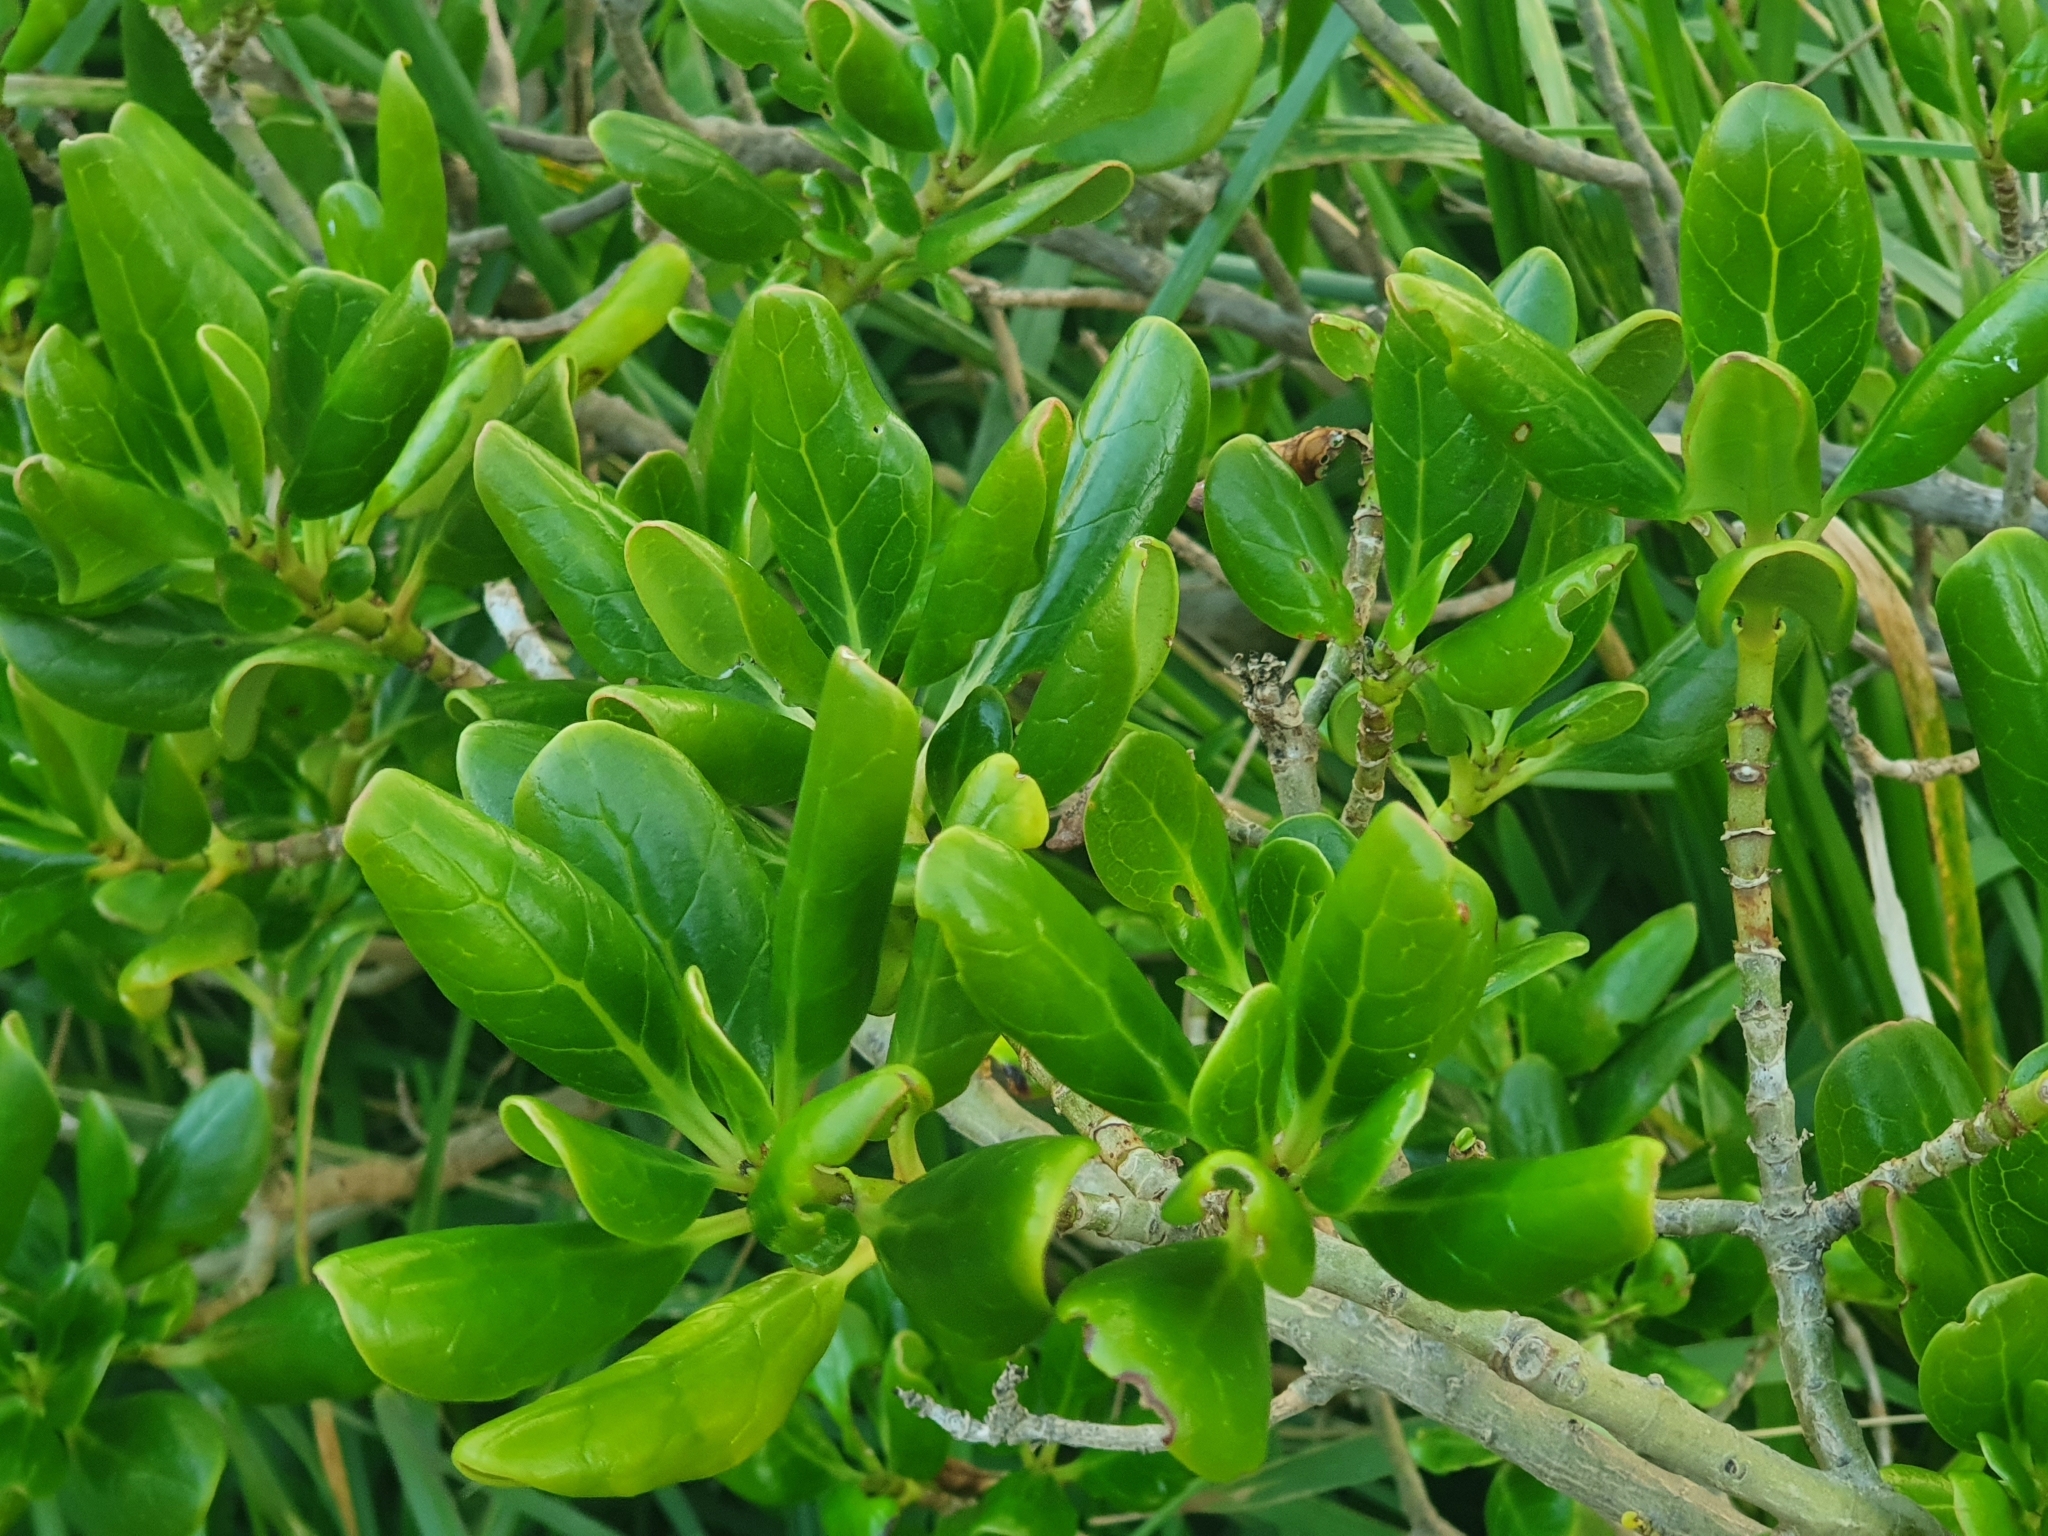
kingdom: Plantae
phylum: Tracheophyta
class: Magnoliopsida
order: Gentianales
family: Rubiaceae
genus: Coprosma
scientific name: Coprosma repens
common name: Tree bedstraw
